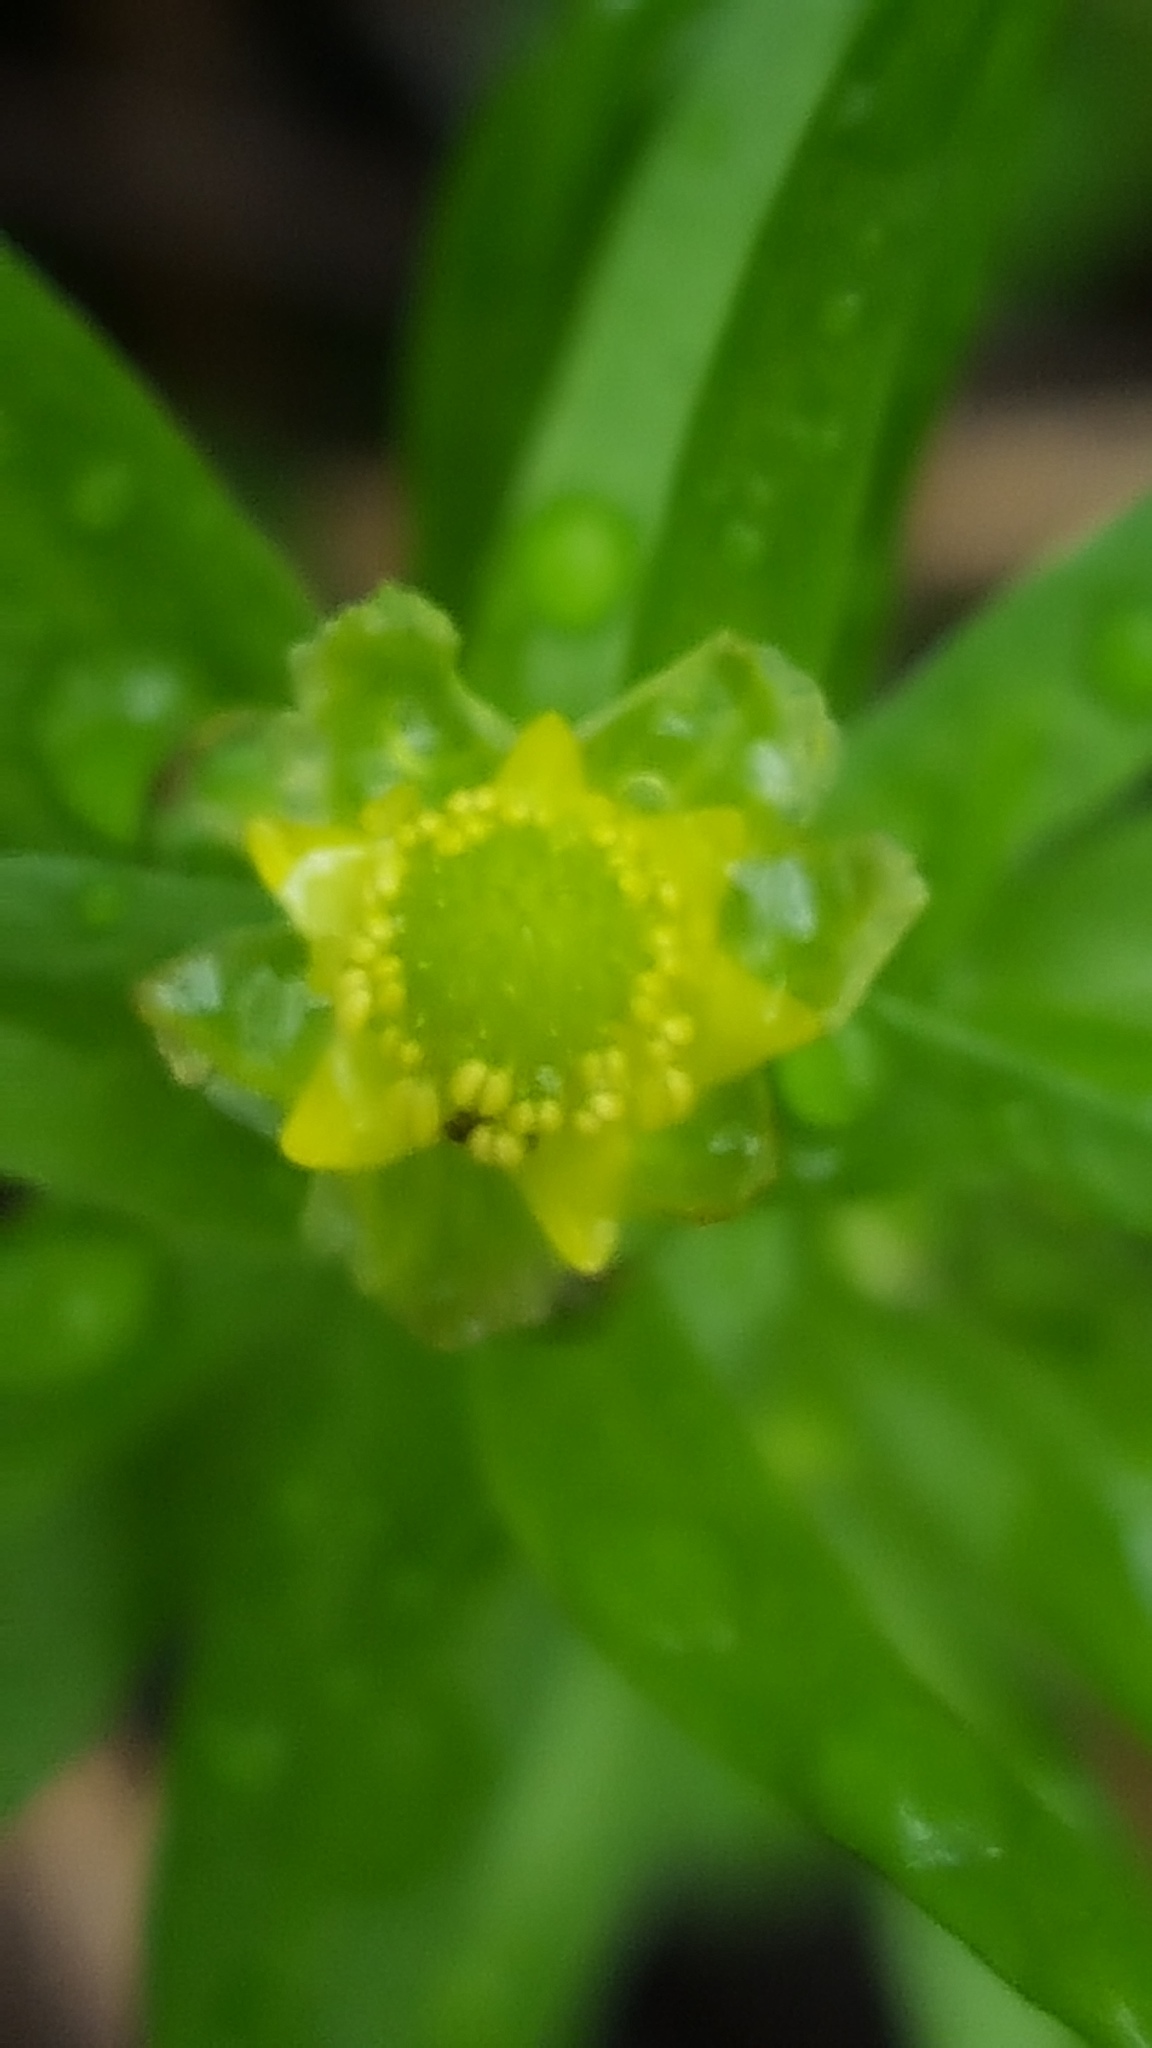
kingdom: Plantae
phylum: Tracheophyta
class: Magnoliopsida
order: Ranunculales
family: Ranunculaceae
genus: Ranunculus
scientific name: Ranunculus abortivus
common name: Early wood buttercup
